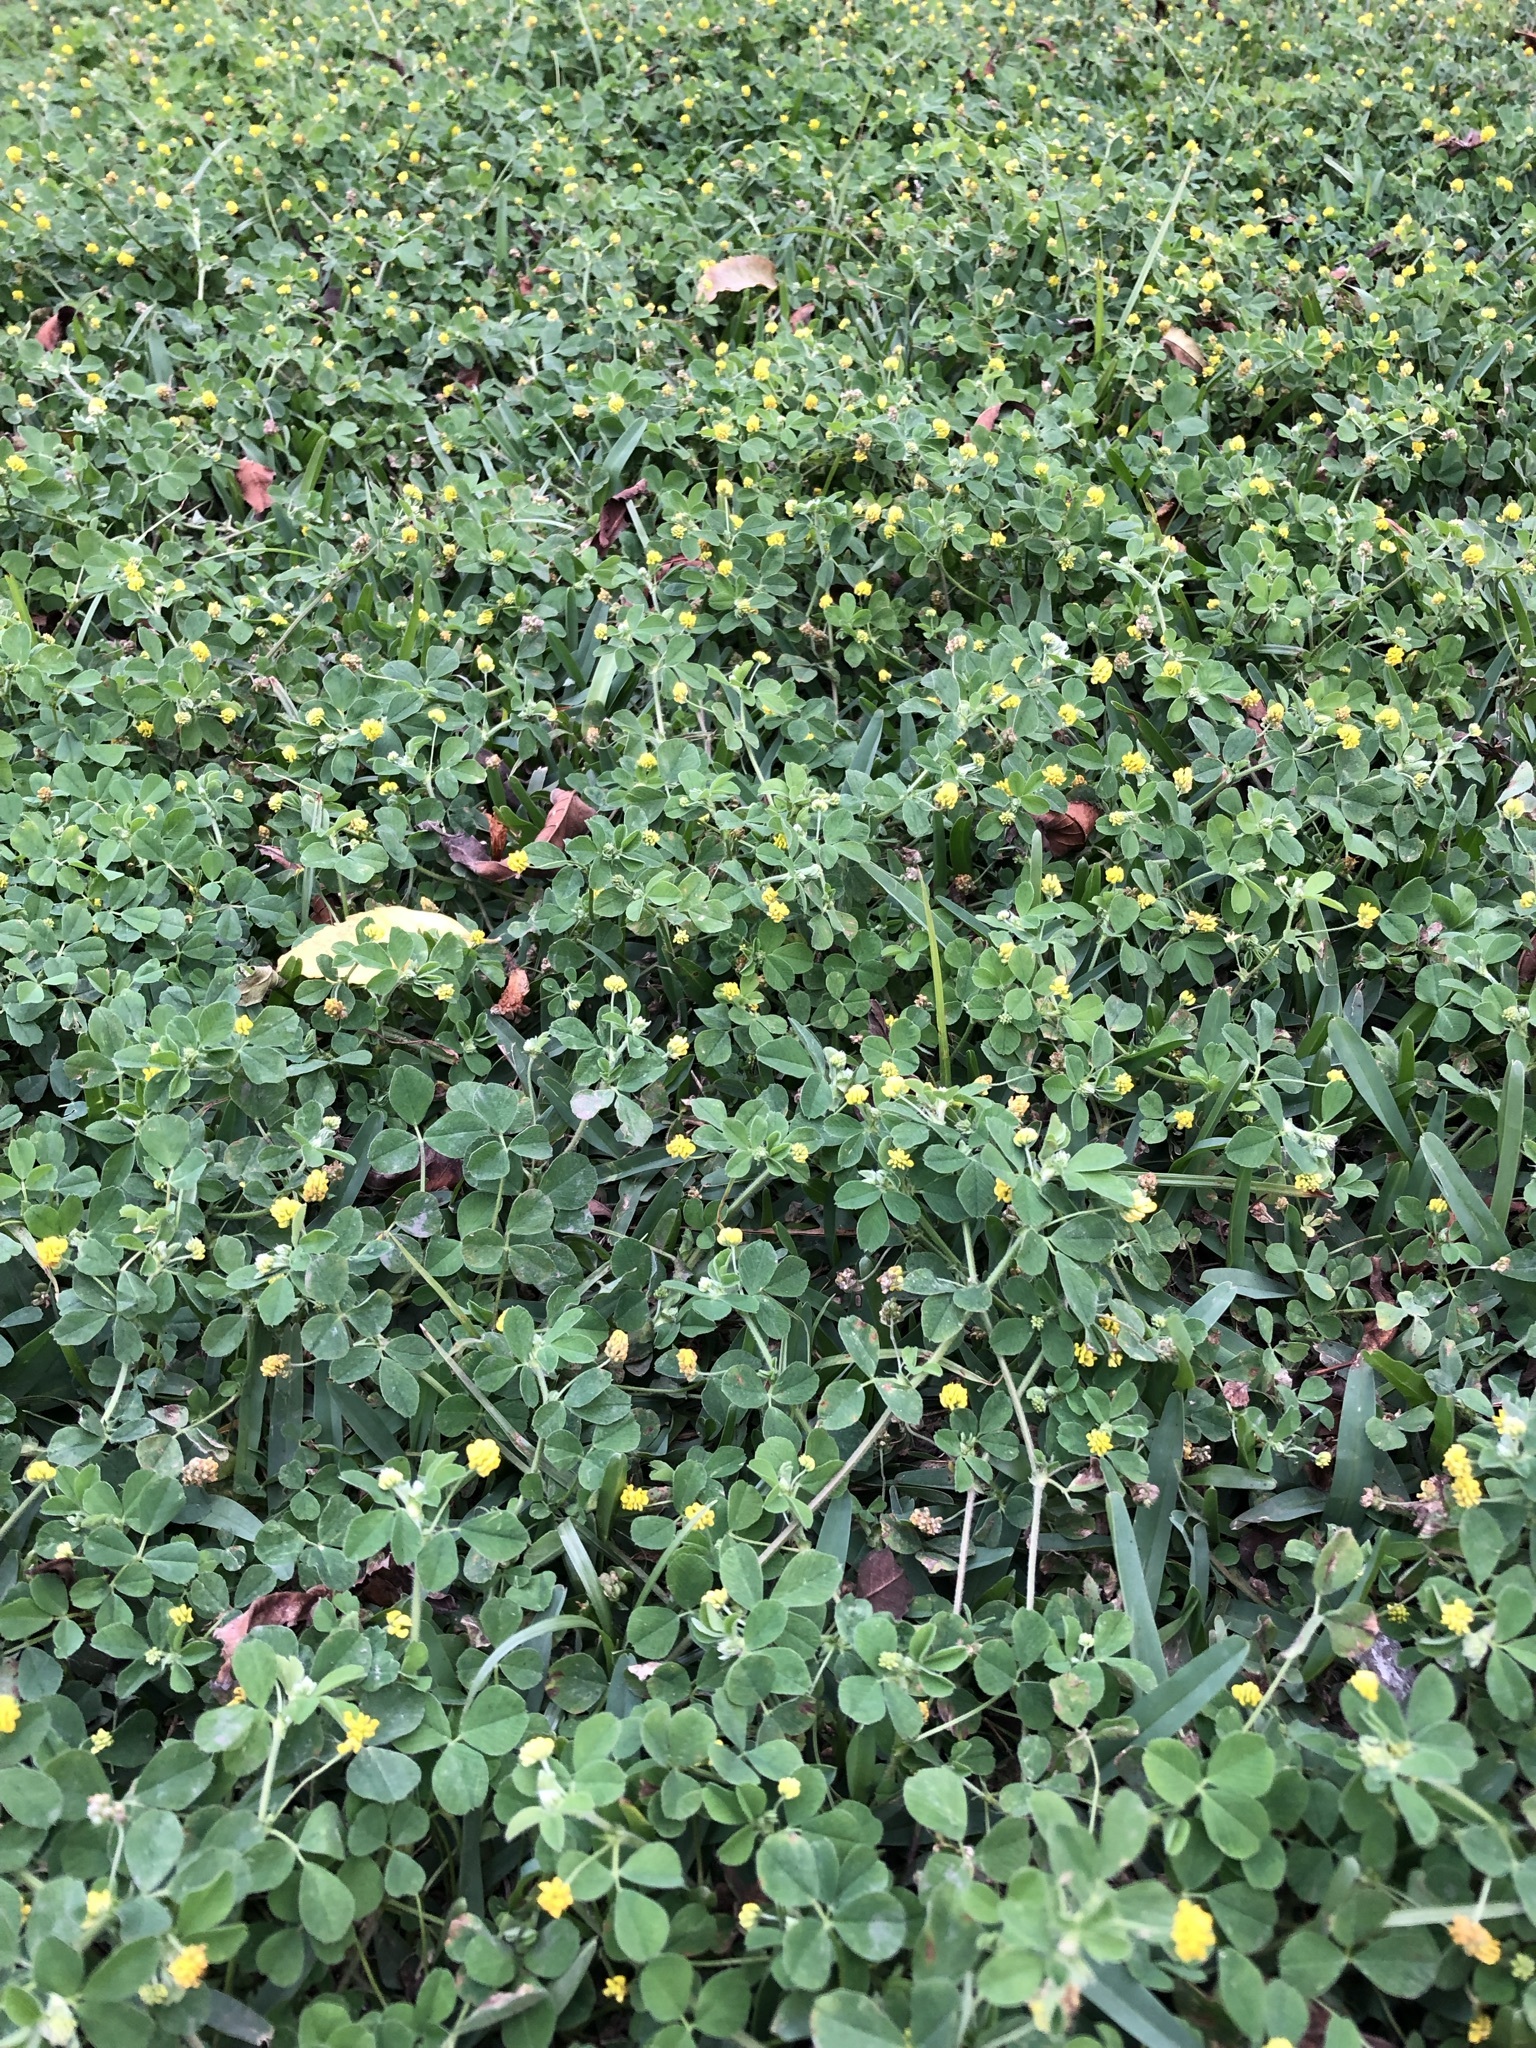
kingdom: Plantae
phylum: Tracheophyta
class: Magnoliopsida
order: Fabales
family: Fabaceae
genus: Medicago
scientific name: Medicago lupulina
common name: Black medick
